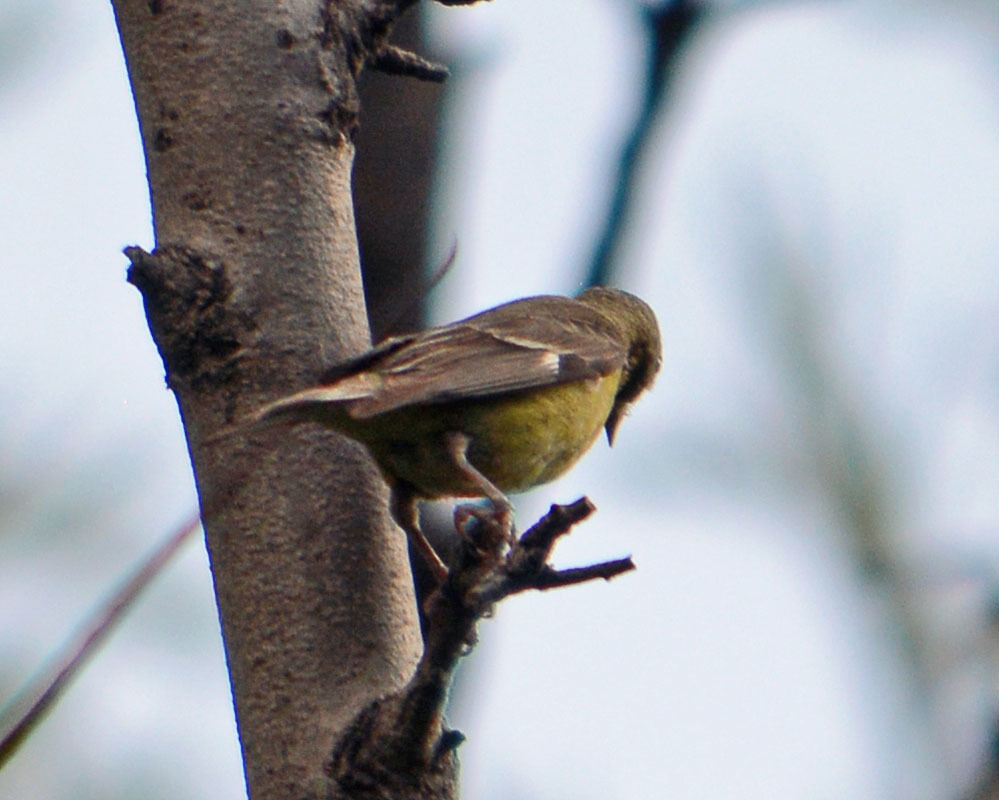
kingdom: Animalia
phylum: Chordata
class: Aves
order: Passeriformes
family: Fringillidae
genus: Spinus
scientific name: Spinus psaltria
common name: Lesser goldfinch
